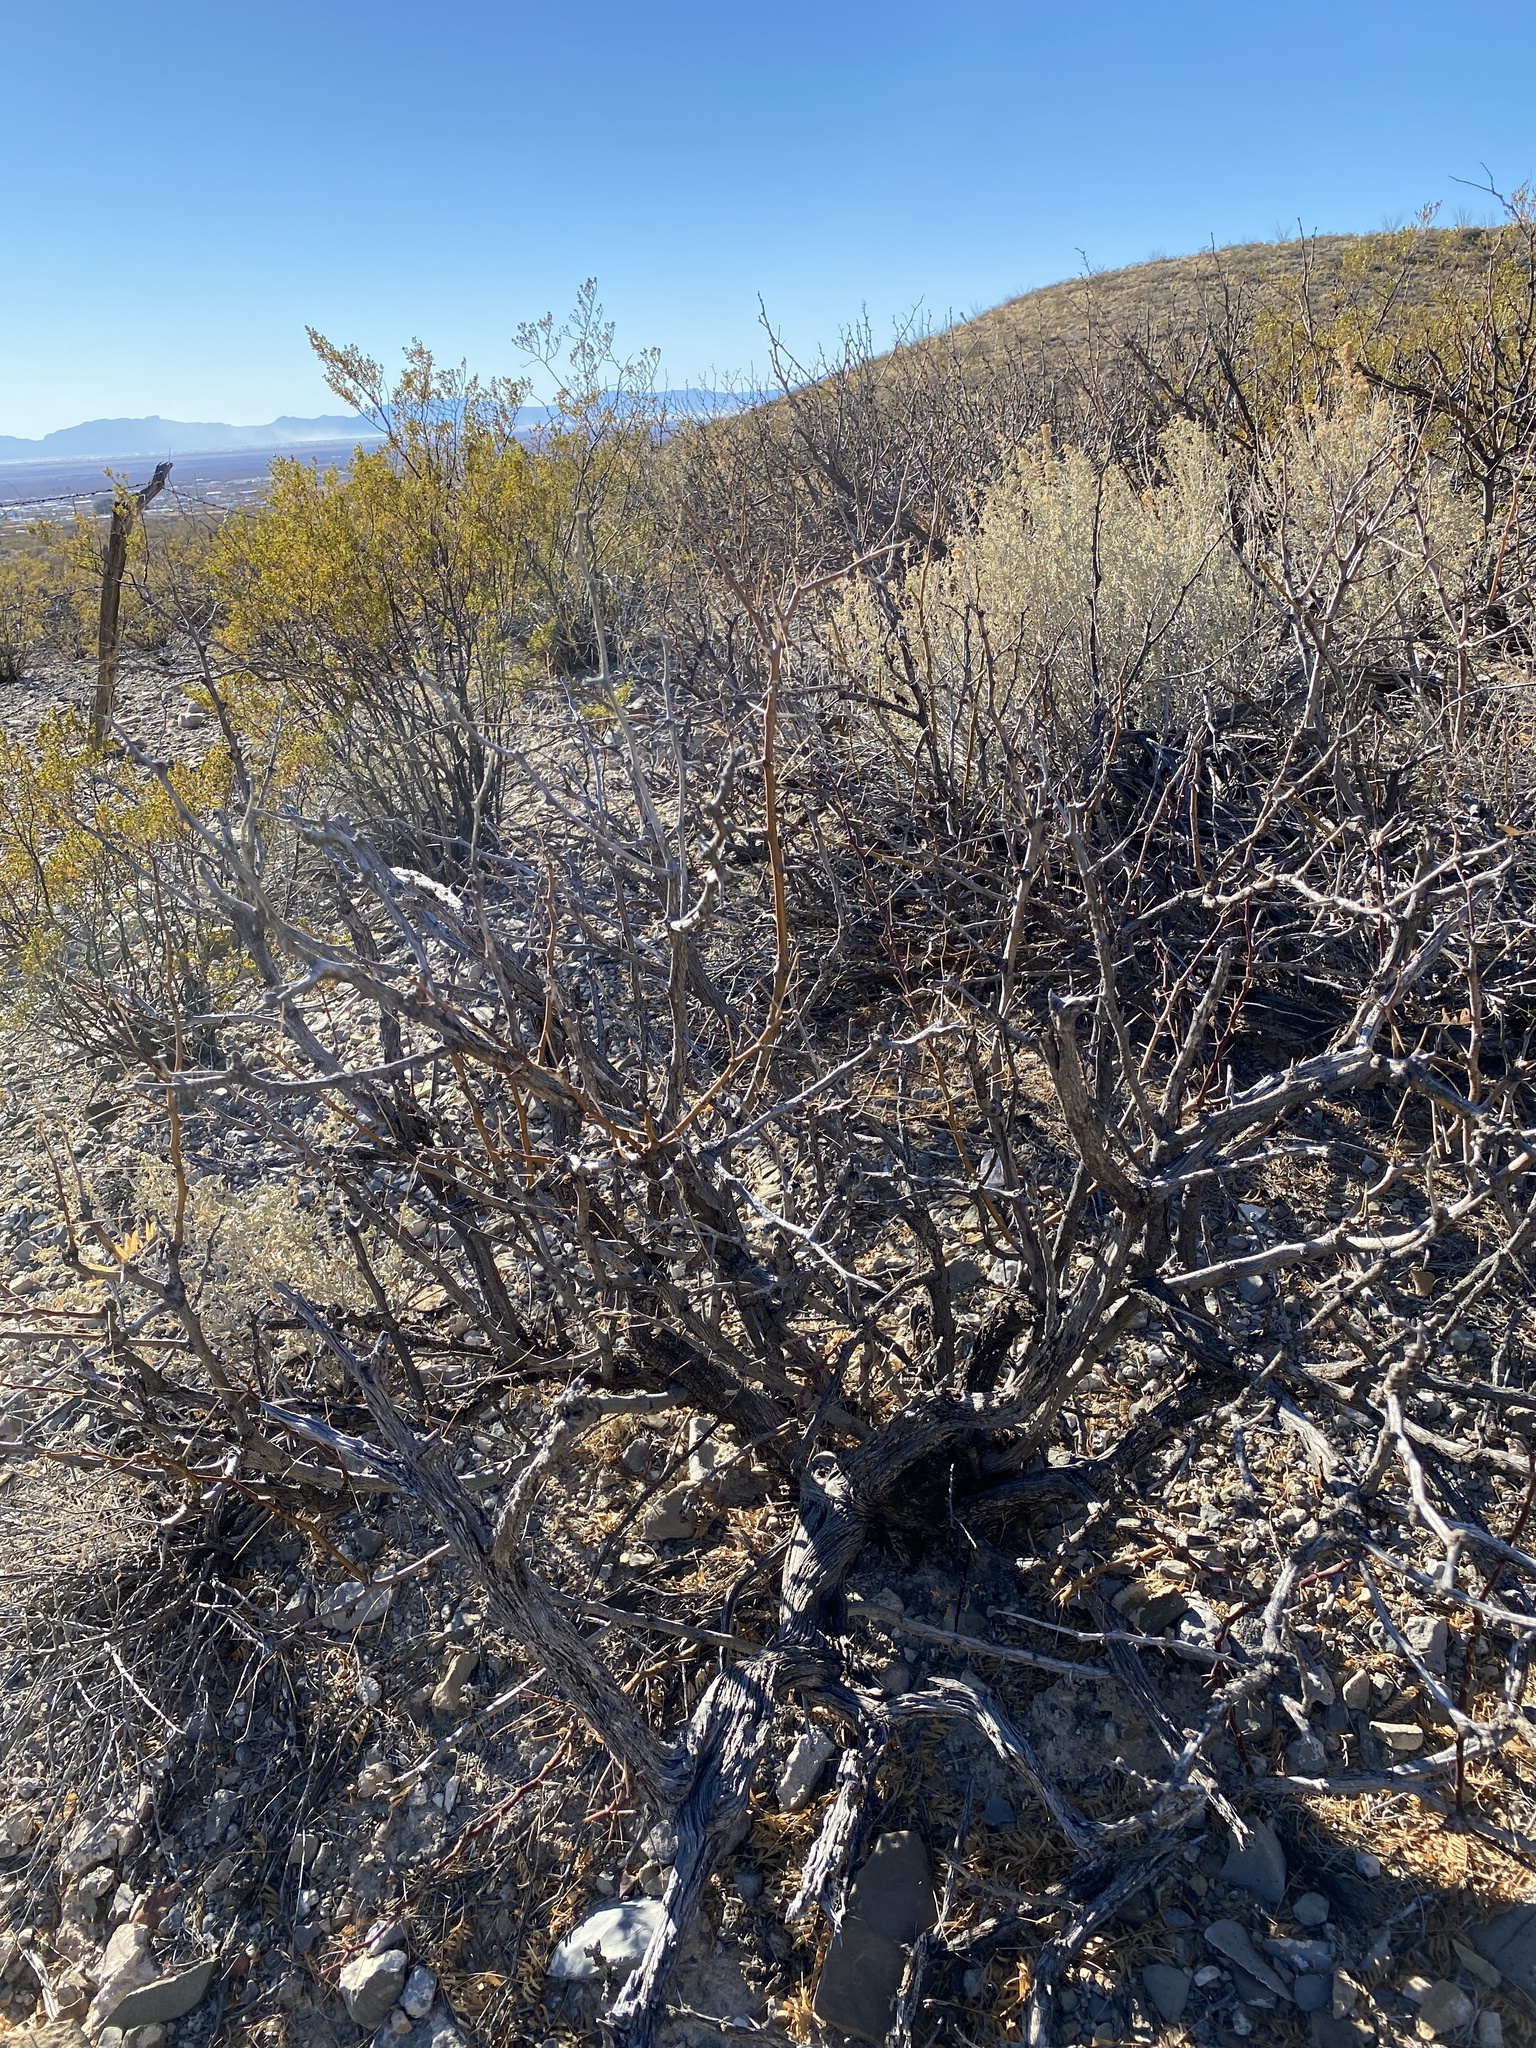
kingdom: Plantae
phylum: Tracheophyta
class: Magnoliopsida
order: Fabales
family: Fabaceae
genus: Prosopis
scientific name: Prosopis glandulosa
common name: Honey mesquite
